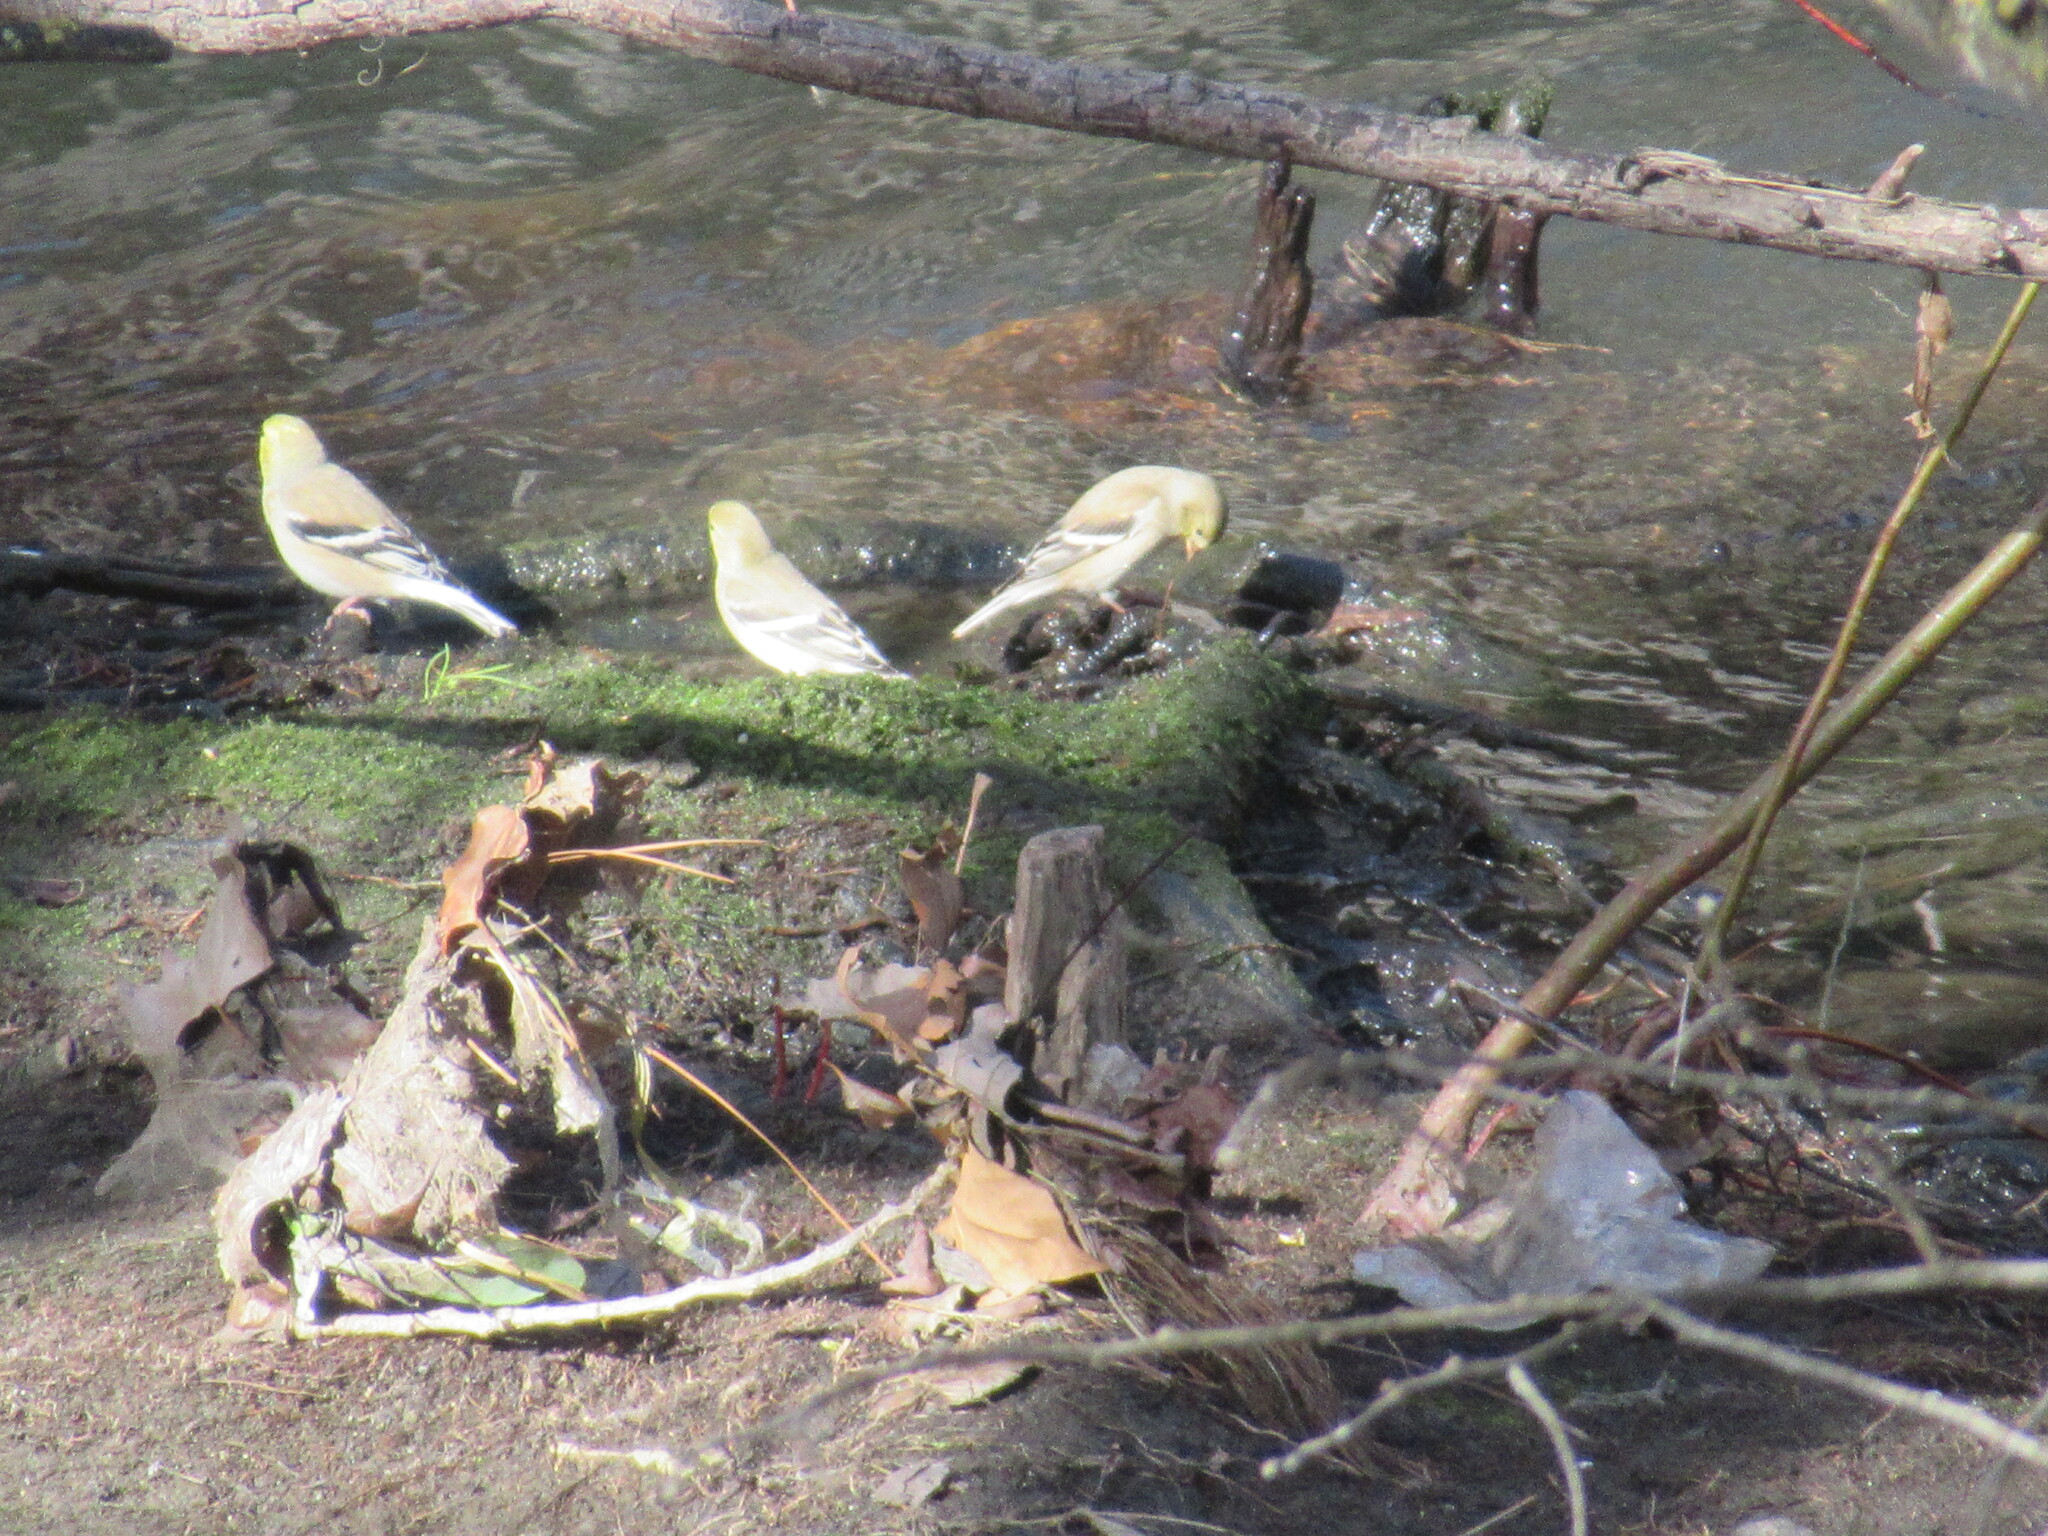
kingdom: Animalia
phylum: Chordata
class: Aves
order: Passeriformes
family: Fringillidae
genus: Spinus
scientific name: Spinus tristis
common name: American goldfinch
